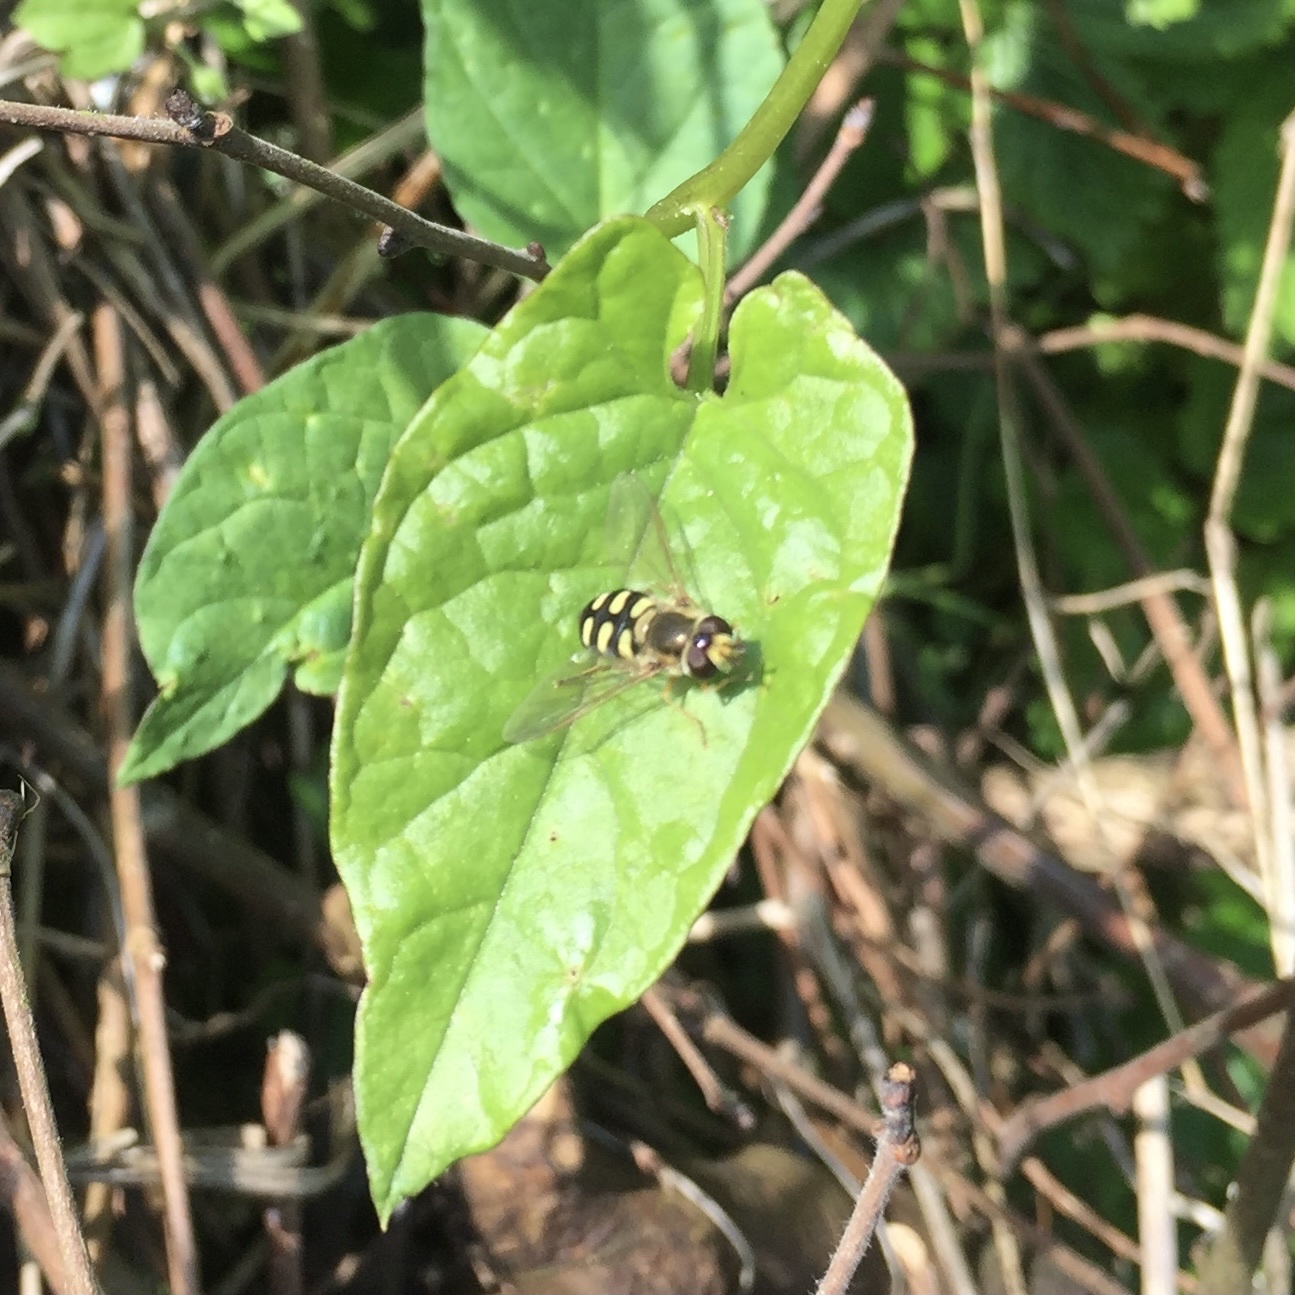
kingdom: Animalia
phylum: Arthropoda
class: Insecta
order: Diptera
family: Syrphidae
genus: Eupeodes
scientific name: Eupeodes corollae
